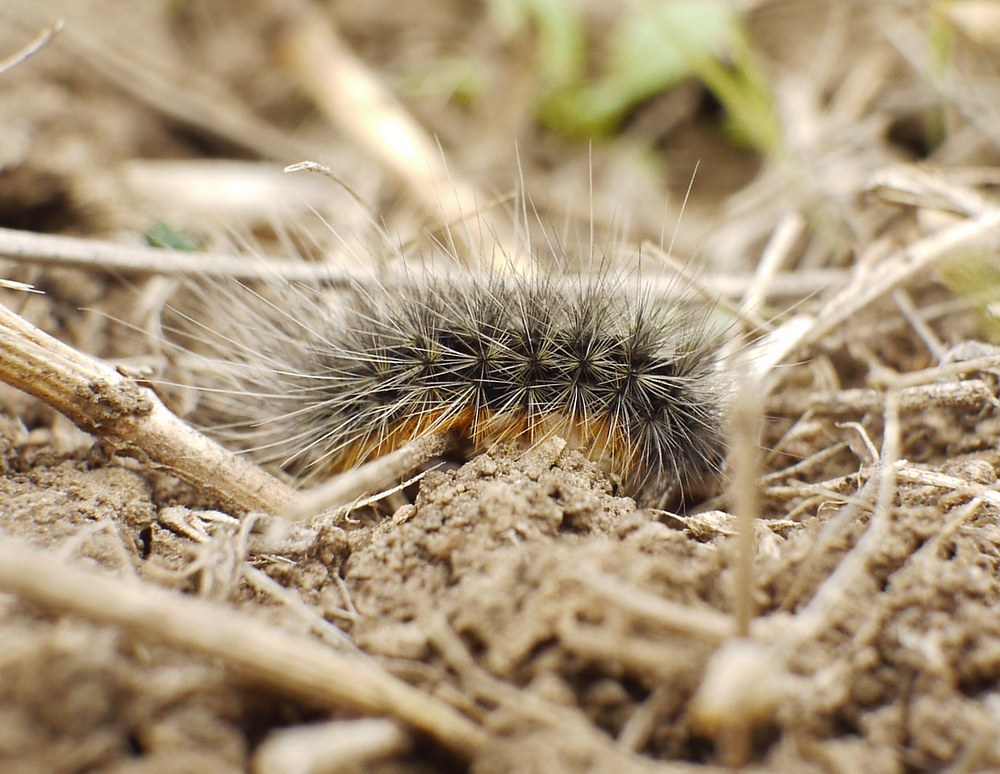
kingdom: Animalia
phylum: Arthropoda
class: Insecta
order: Lepidoptera
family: Erebidae
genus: Eucharia
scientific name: Eucharia festiva
